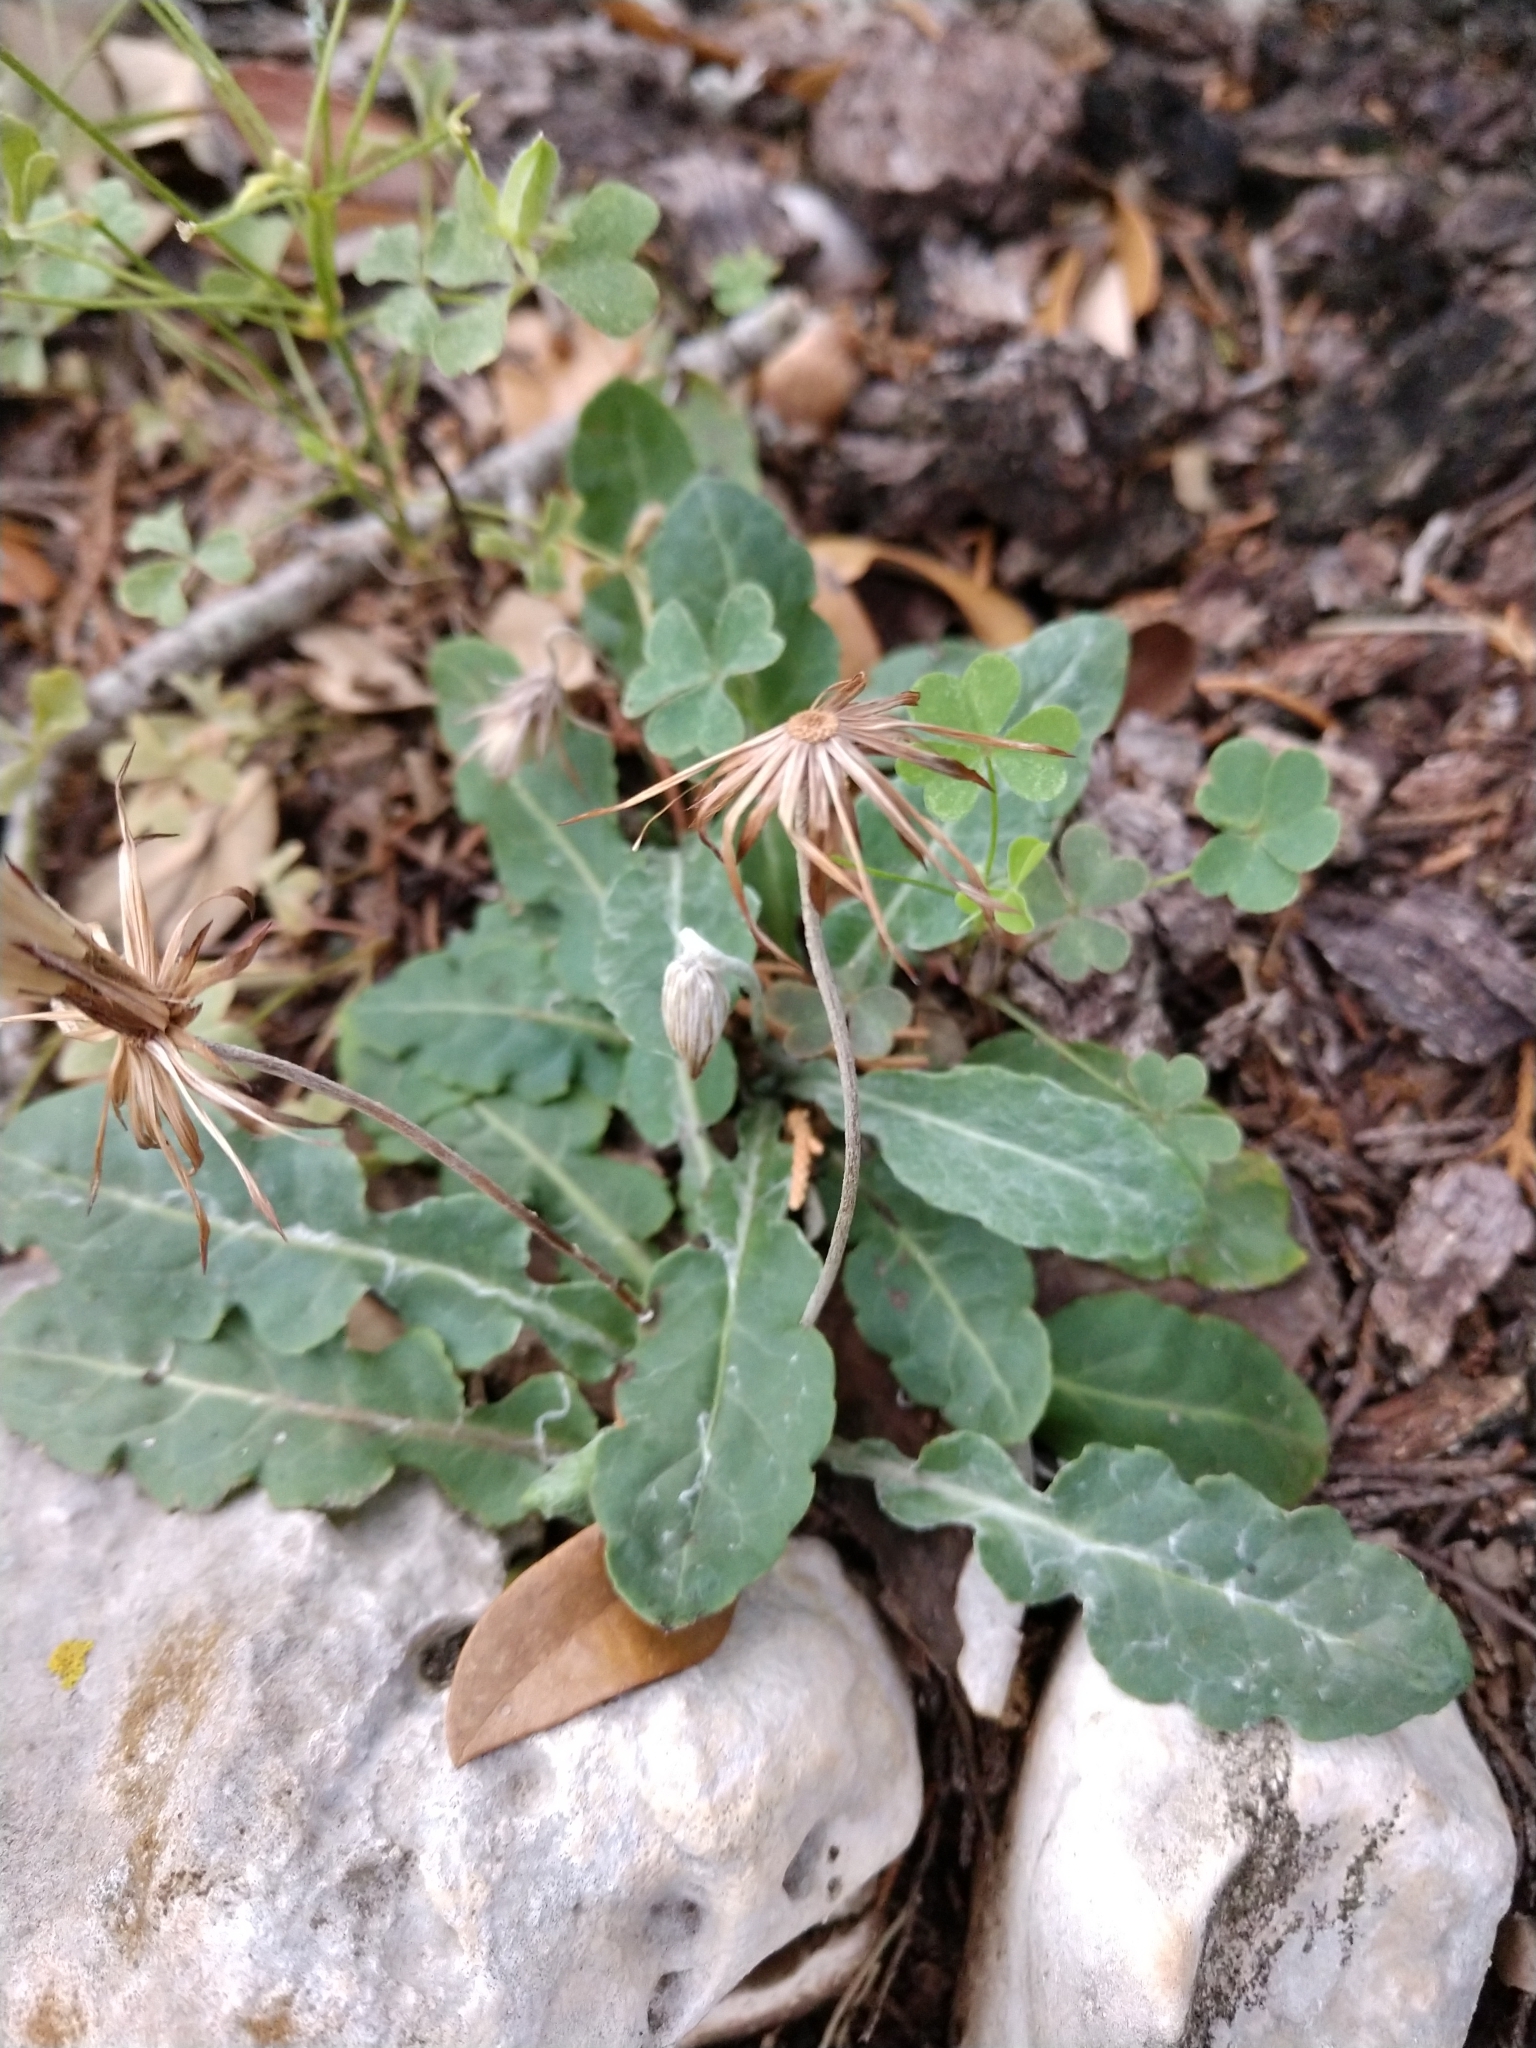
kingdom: Plantae
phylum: Tracheophyta
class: Magnoliopsida
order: Asterales
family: Asteraceae
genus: Chaptalia
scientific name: Chaptalia texana
